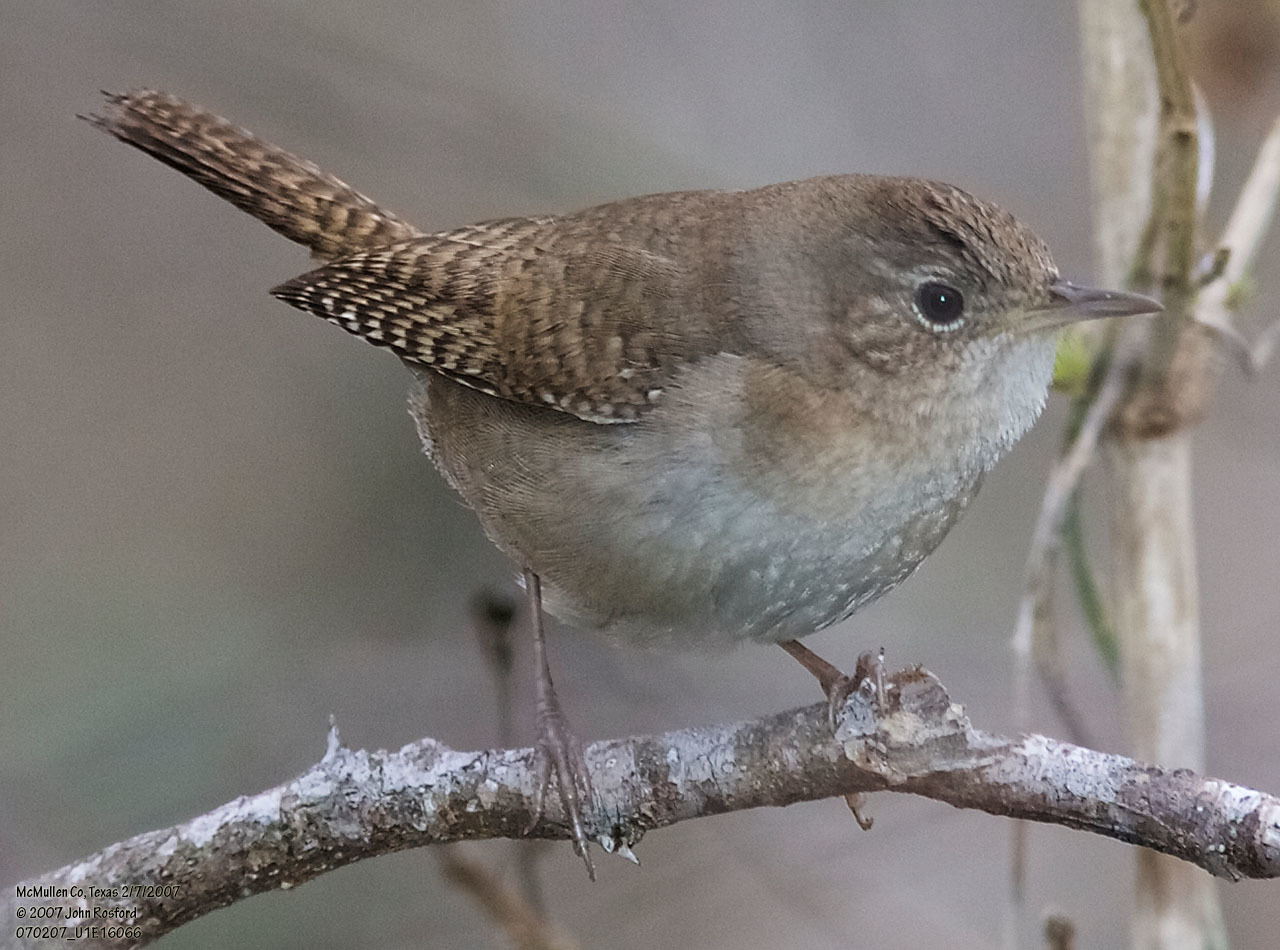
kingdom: Animalia
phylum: Chordata
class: Aves
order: Passeriformes
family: Troglodytidae
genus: Troglodytes
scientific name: Troglodytes aedon
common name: House wren
